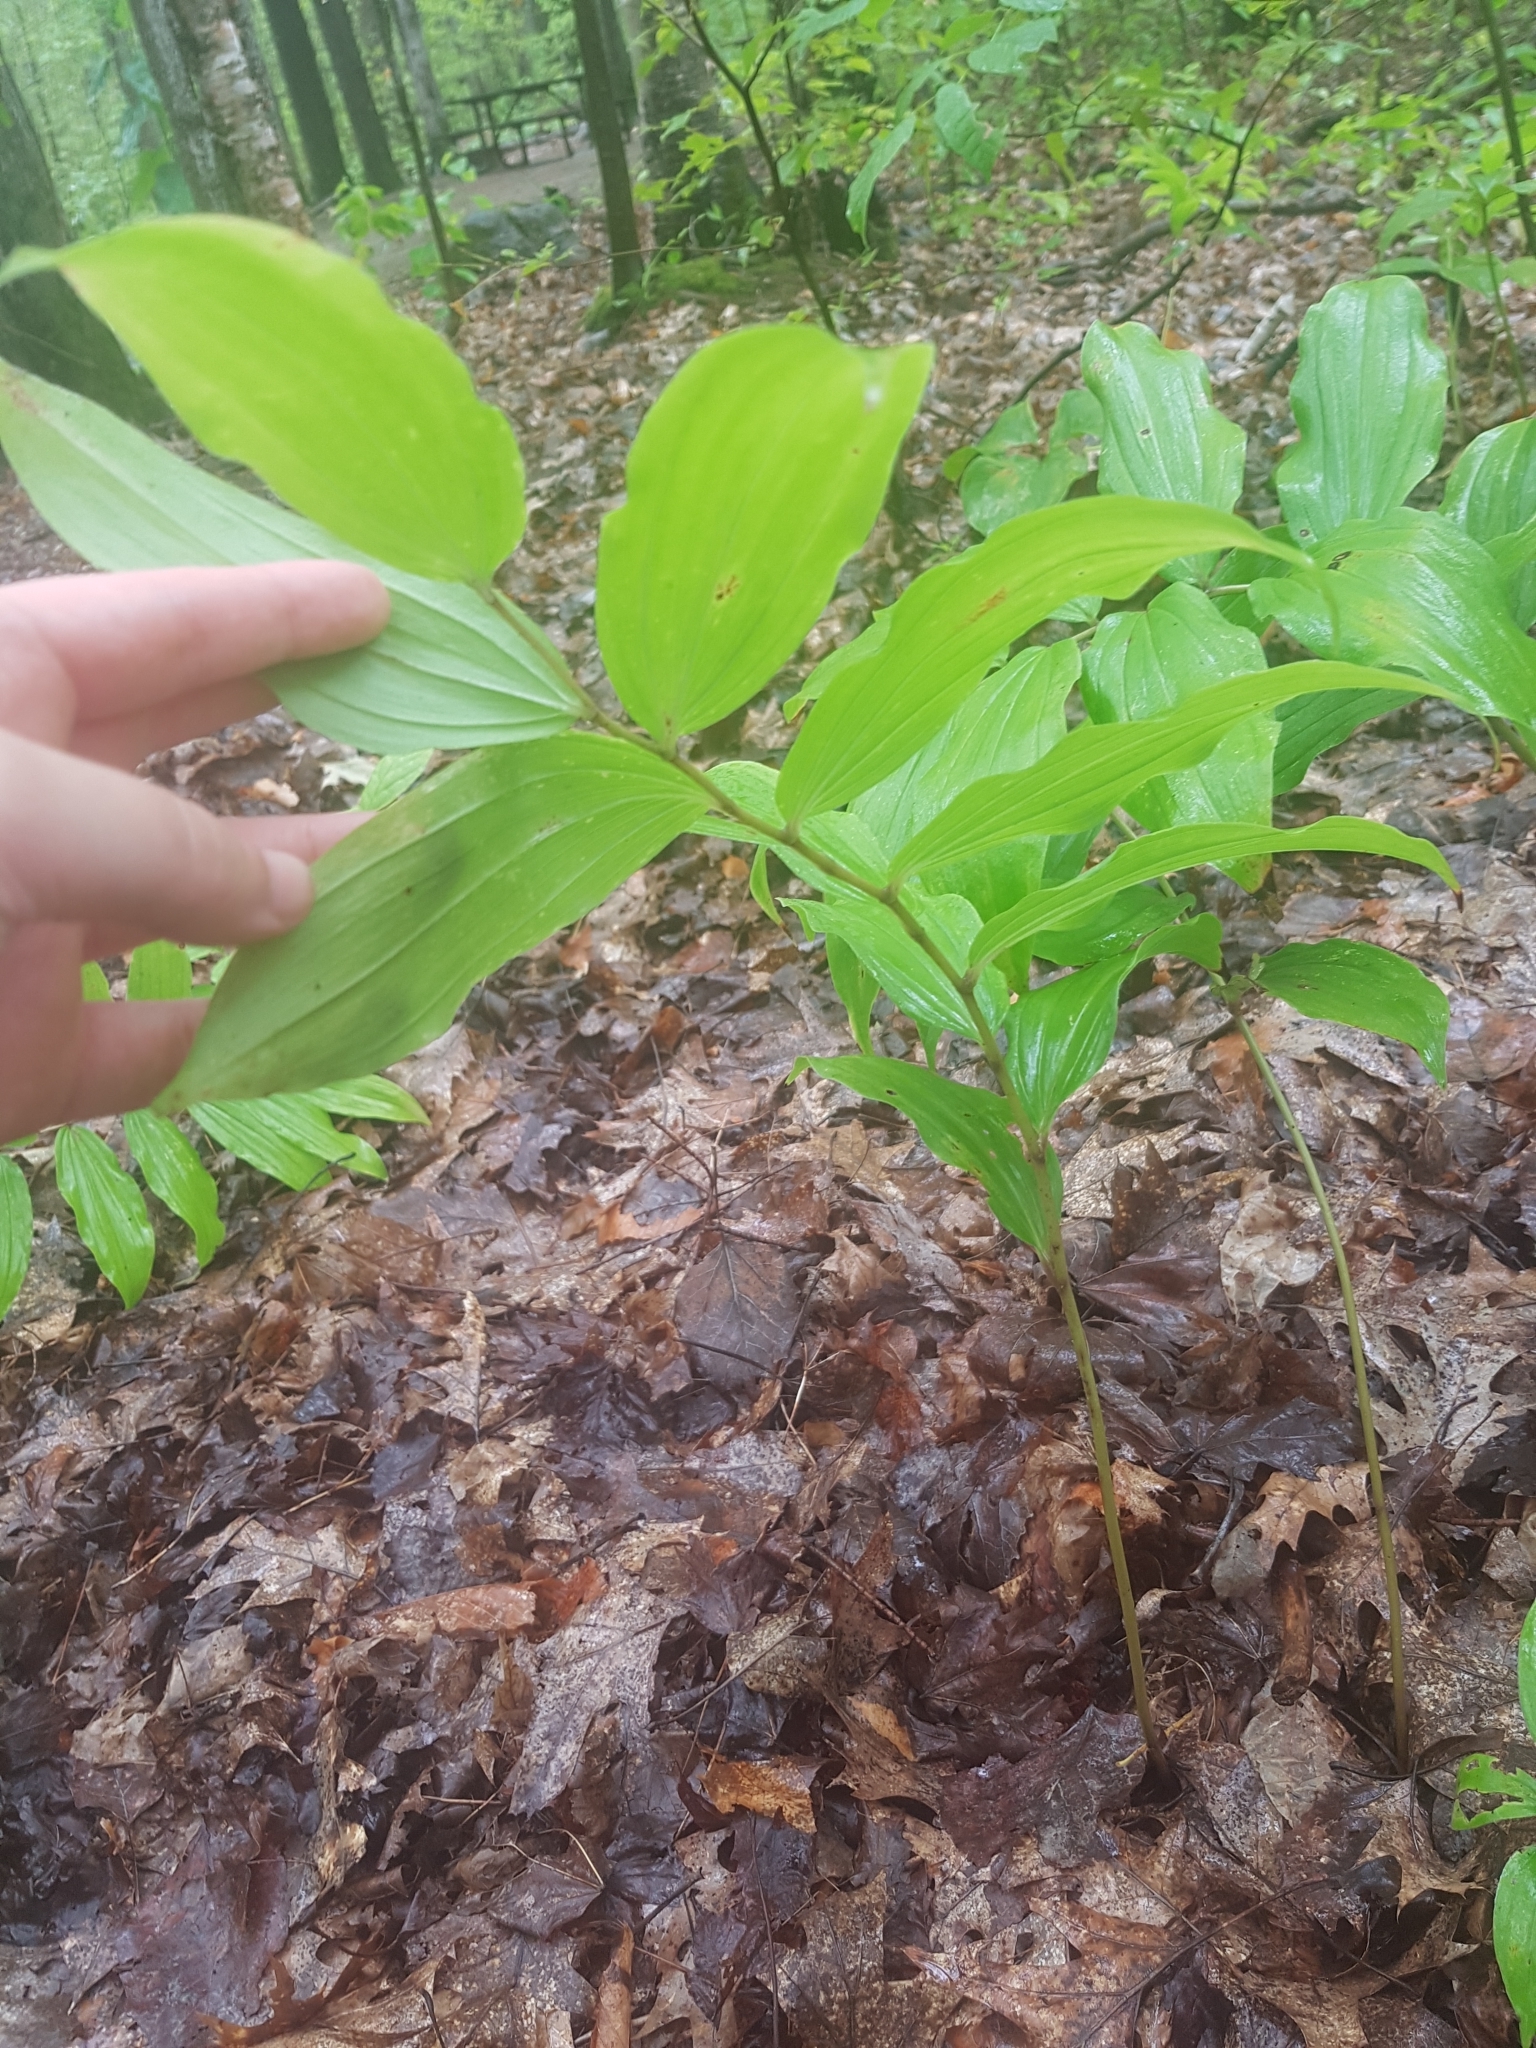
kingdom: Plantae
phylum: Tracheophyta
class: Liliopsida
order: Asparagales
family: Asparagaceae
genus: Maianthemum
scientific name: Maianthemum racemosum
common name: False spikenard
